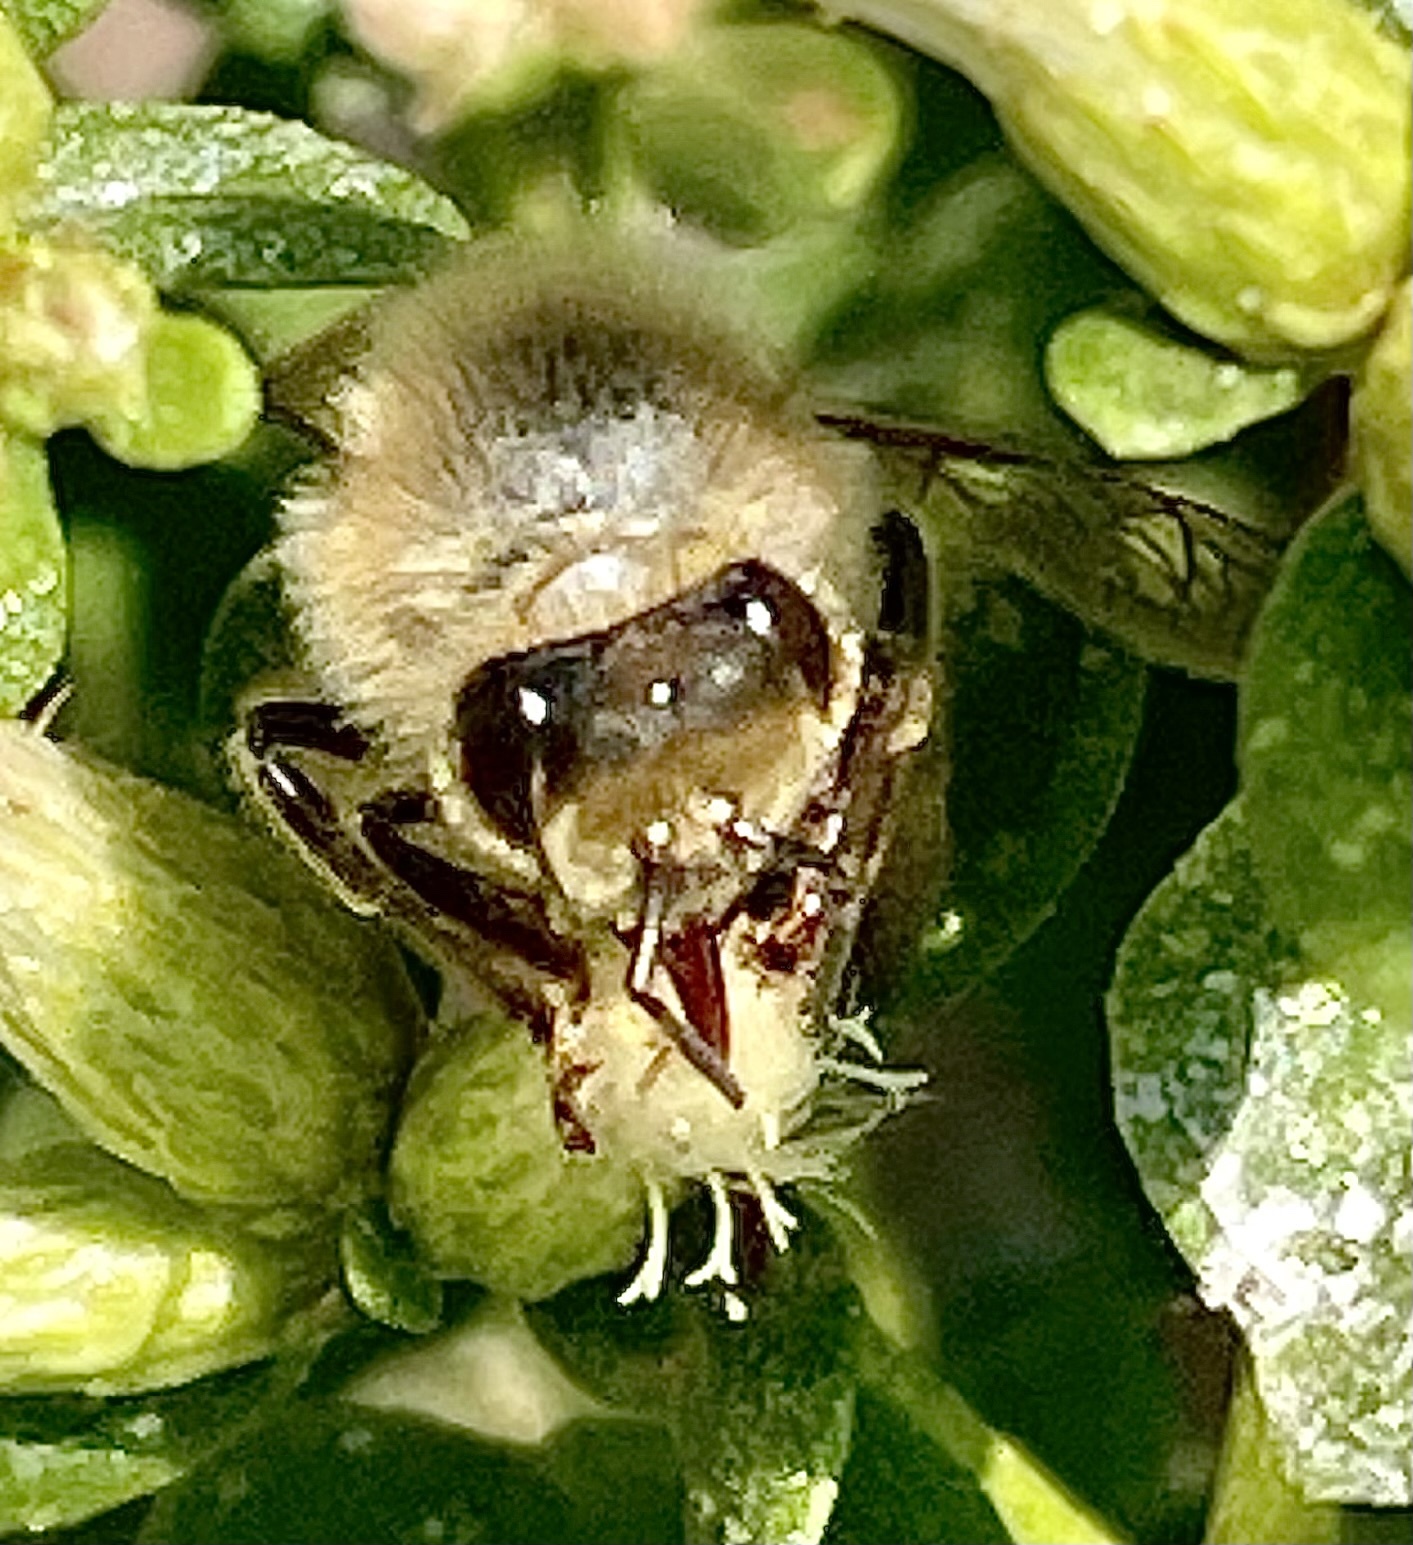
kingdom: Animalia
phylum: Arthropoda
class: Insecta
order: Hymenoptera
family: Apidae
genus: Apis
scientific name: Apis mellifera
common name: Honey bee
